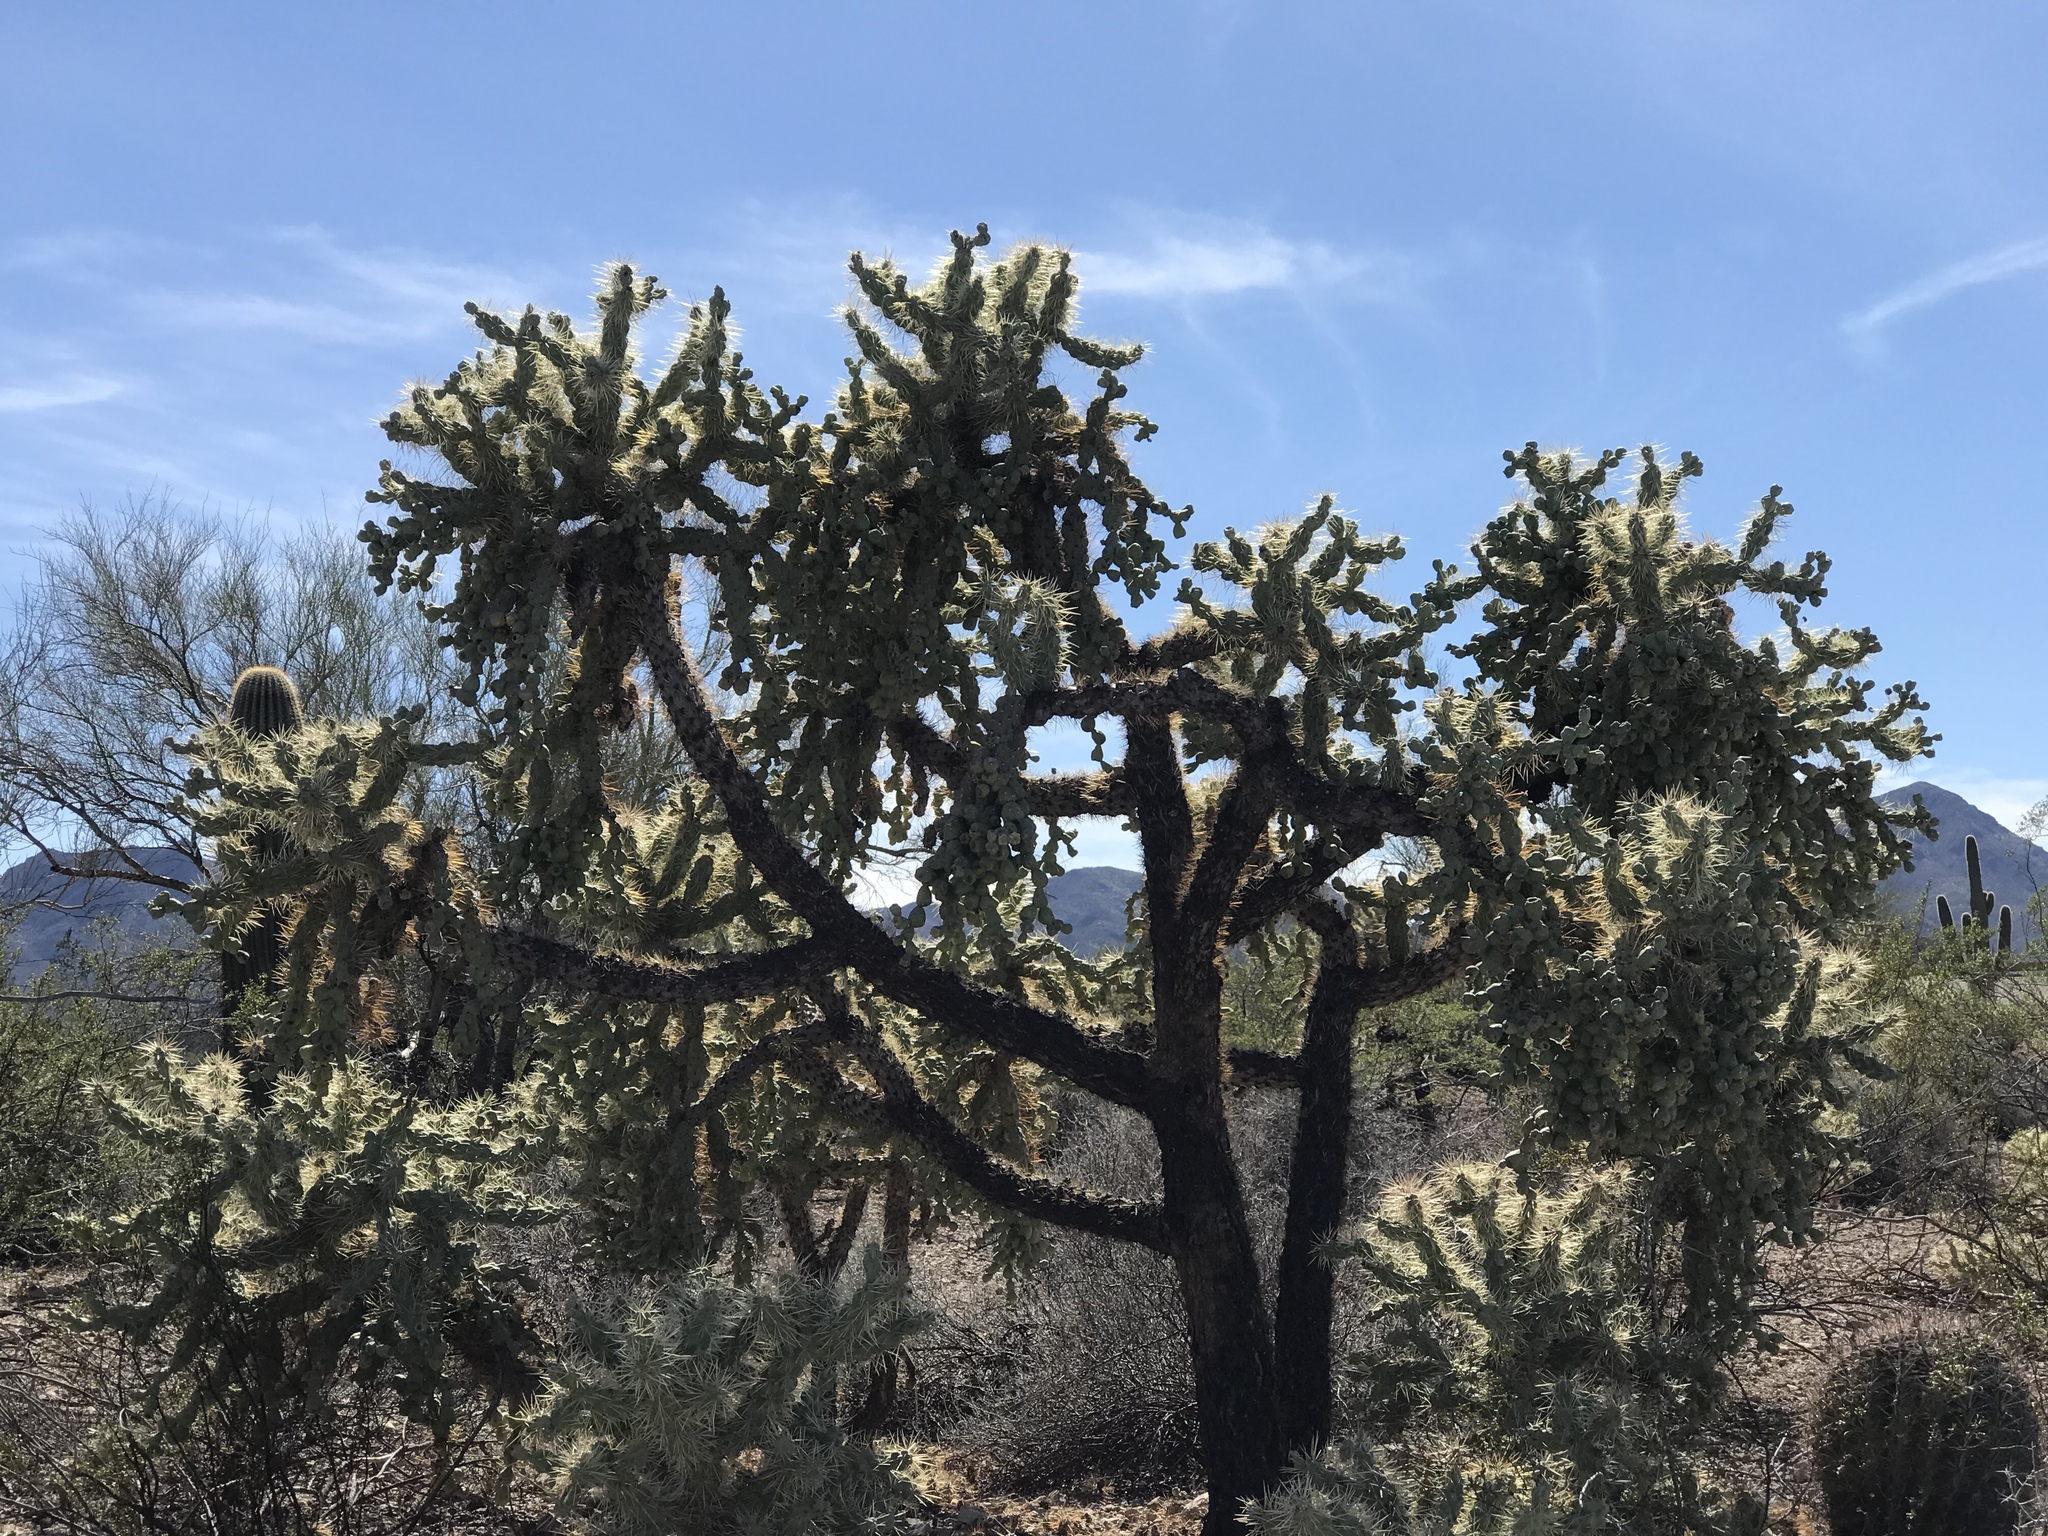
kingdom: Plantae
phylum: Tracheophyta
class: Magnoliopsida
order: Caryophyllales
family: Cactaceae
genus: Cylindropuntia
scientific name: Cylindropuntia fulgida
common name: Jumping cholla
